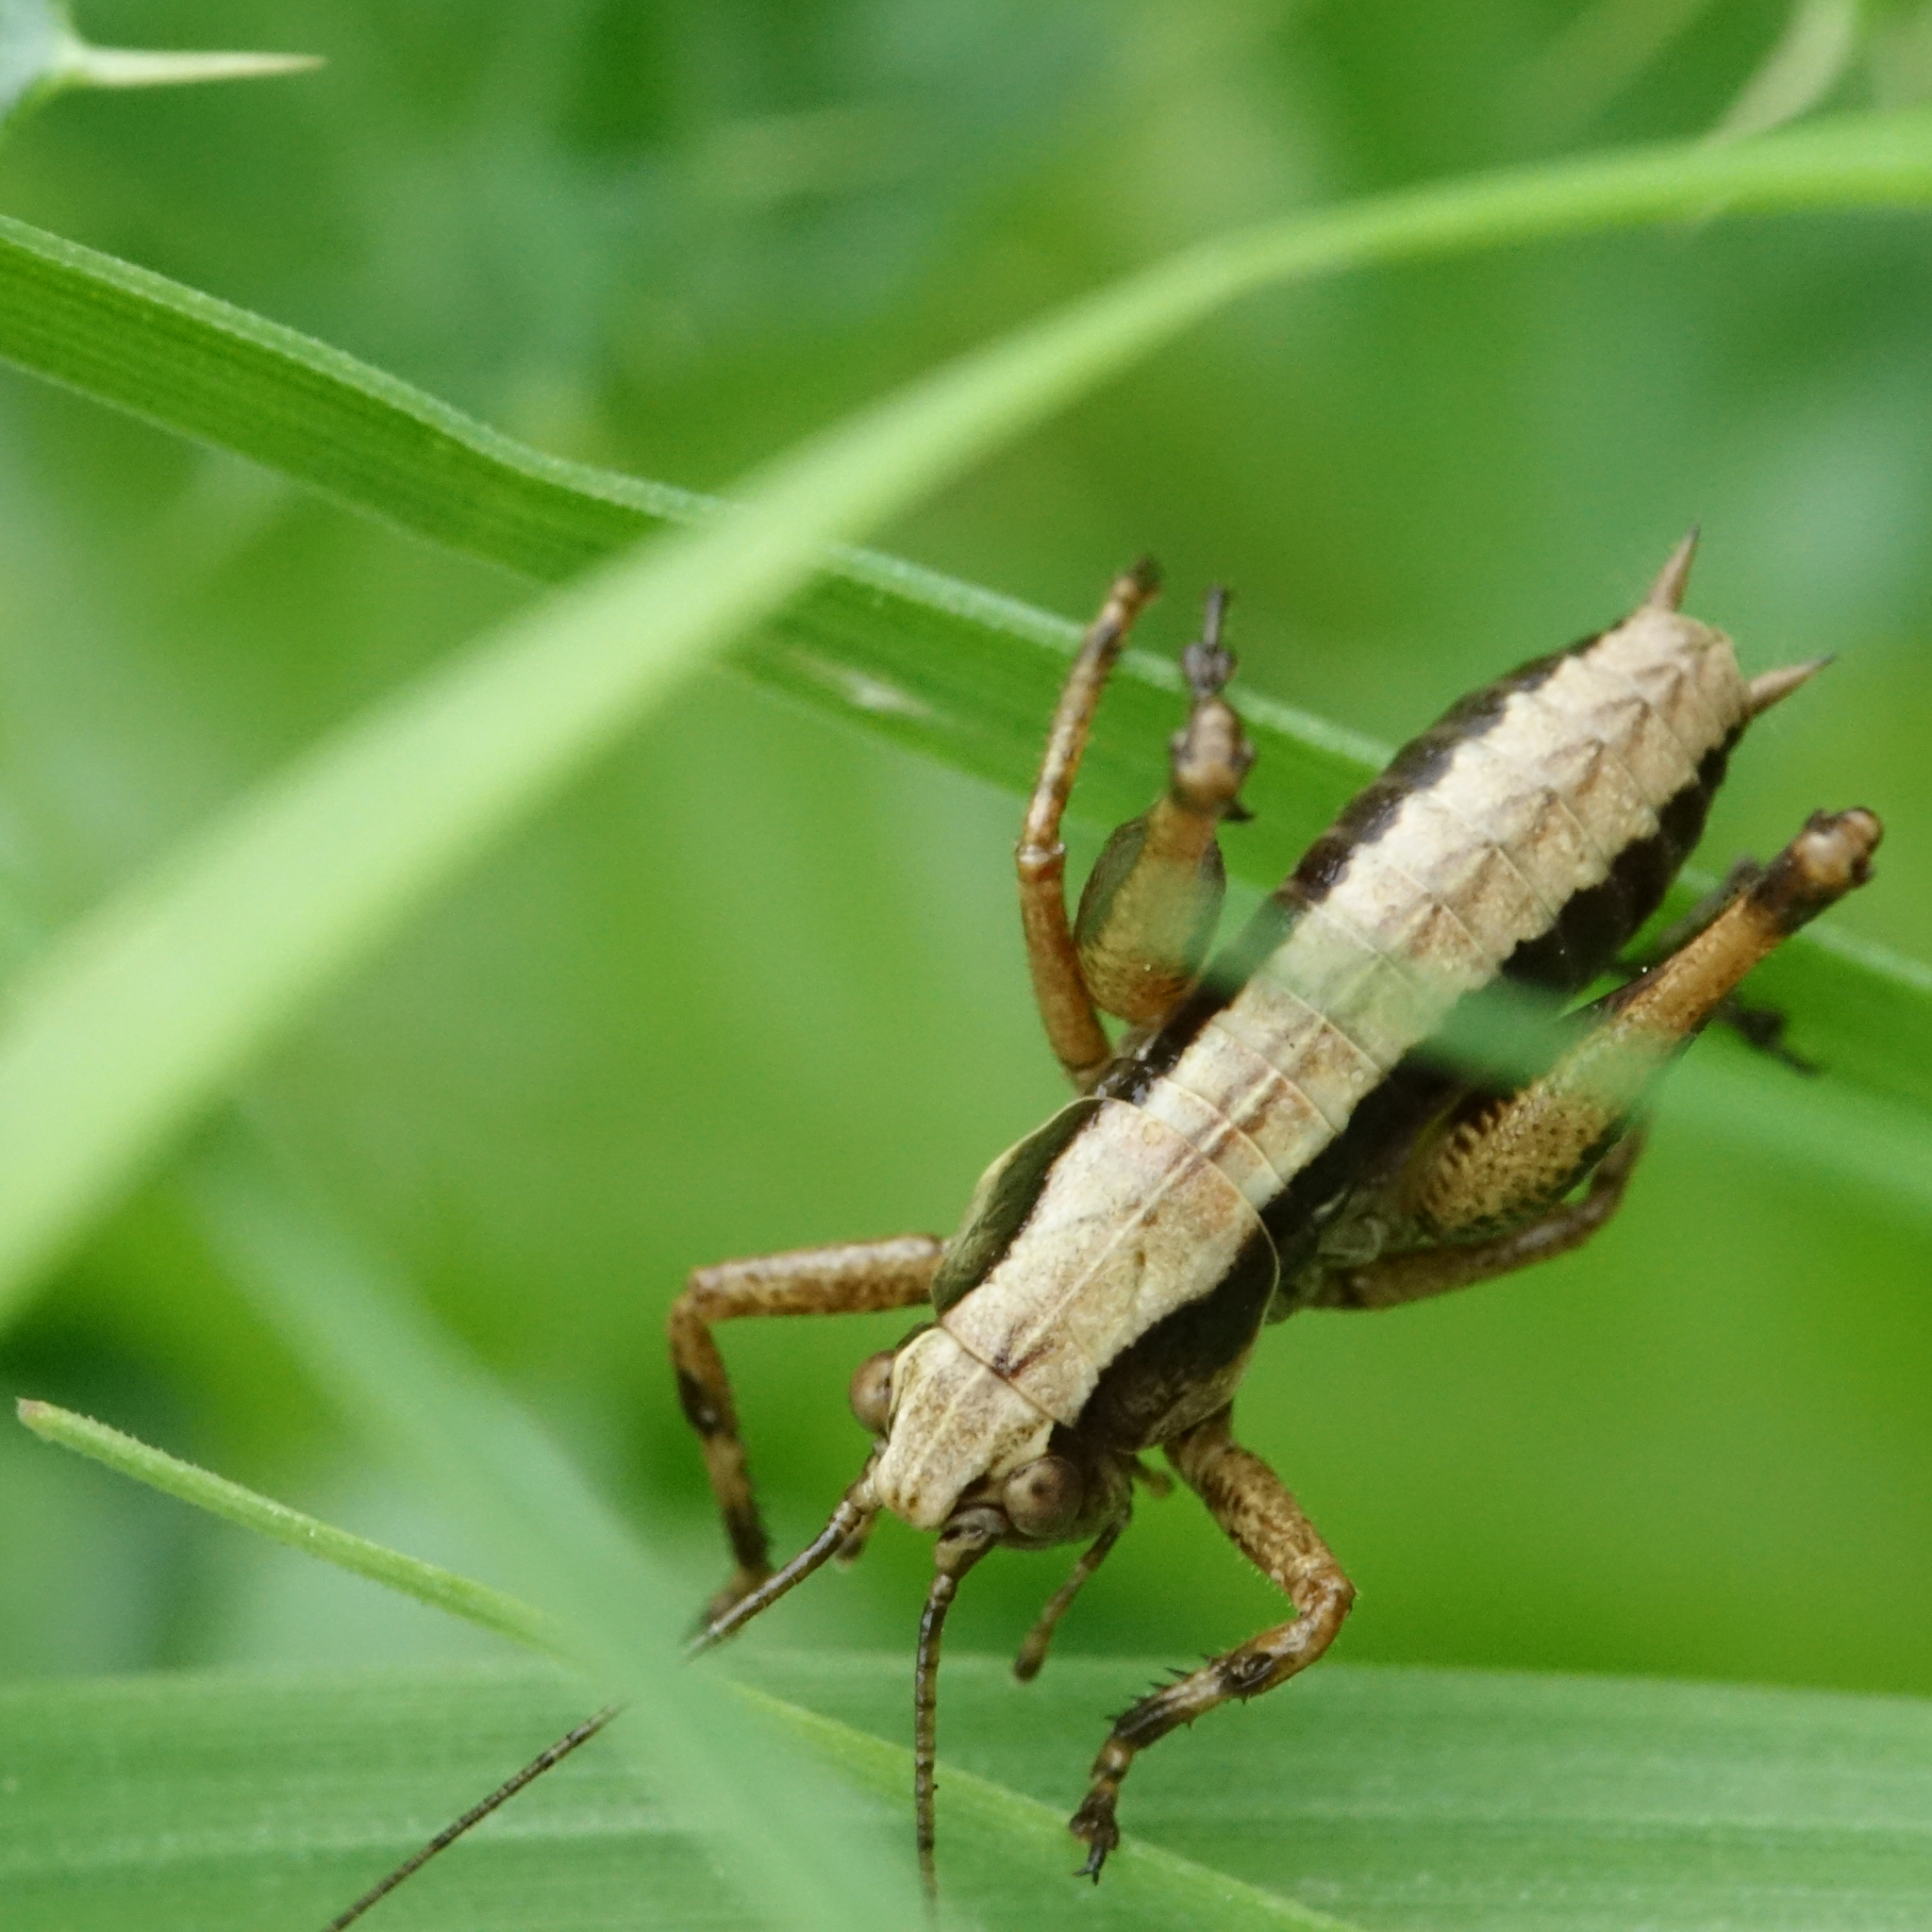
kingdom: Animalia
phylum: Arthropoda
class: Insecta
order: Orthoptera
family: Tettigoniidae
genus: Pholidoptera
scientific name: Pholidoptera griseoaptera
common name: Dark bush-cricket
